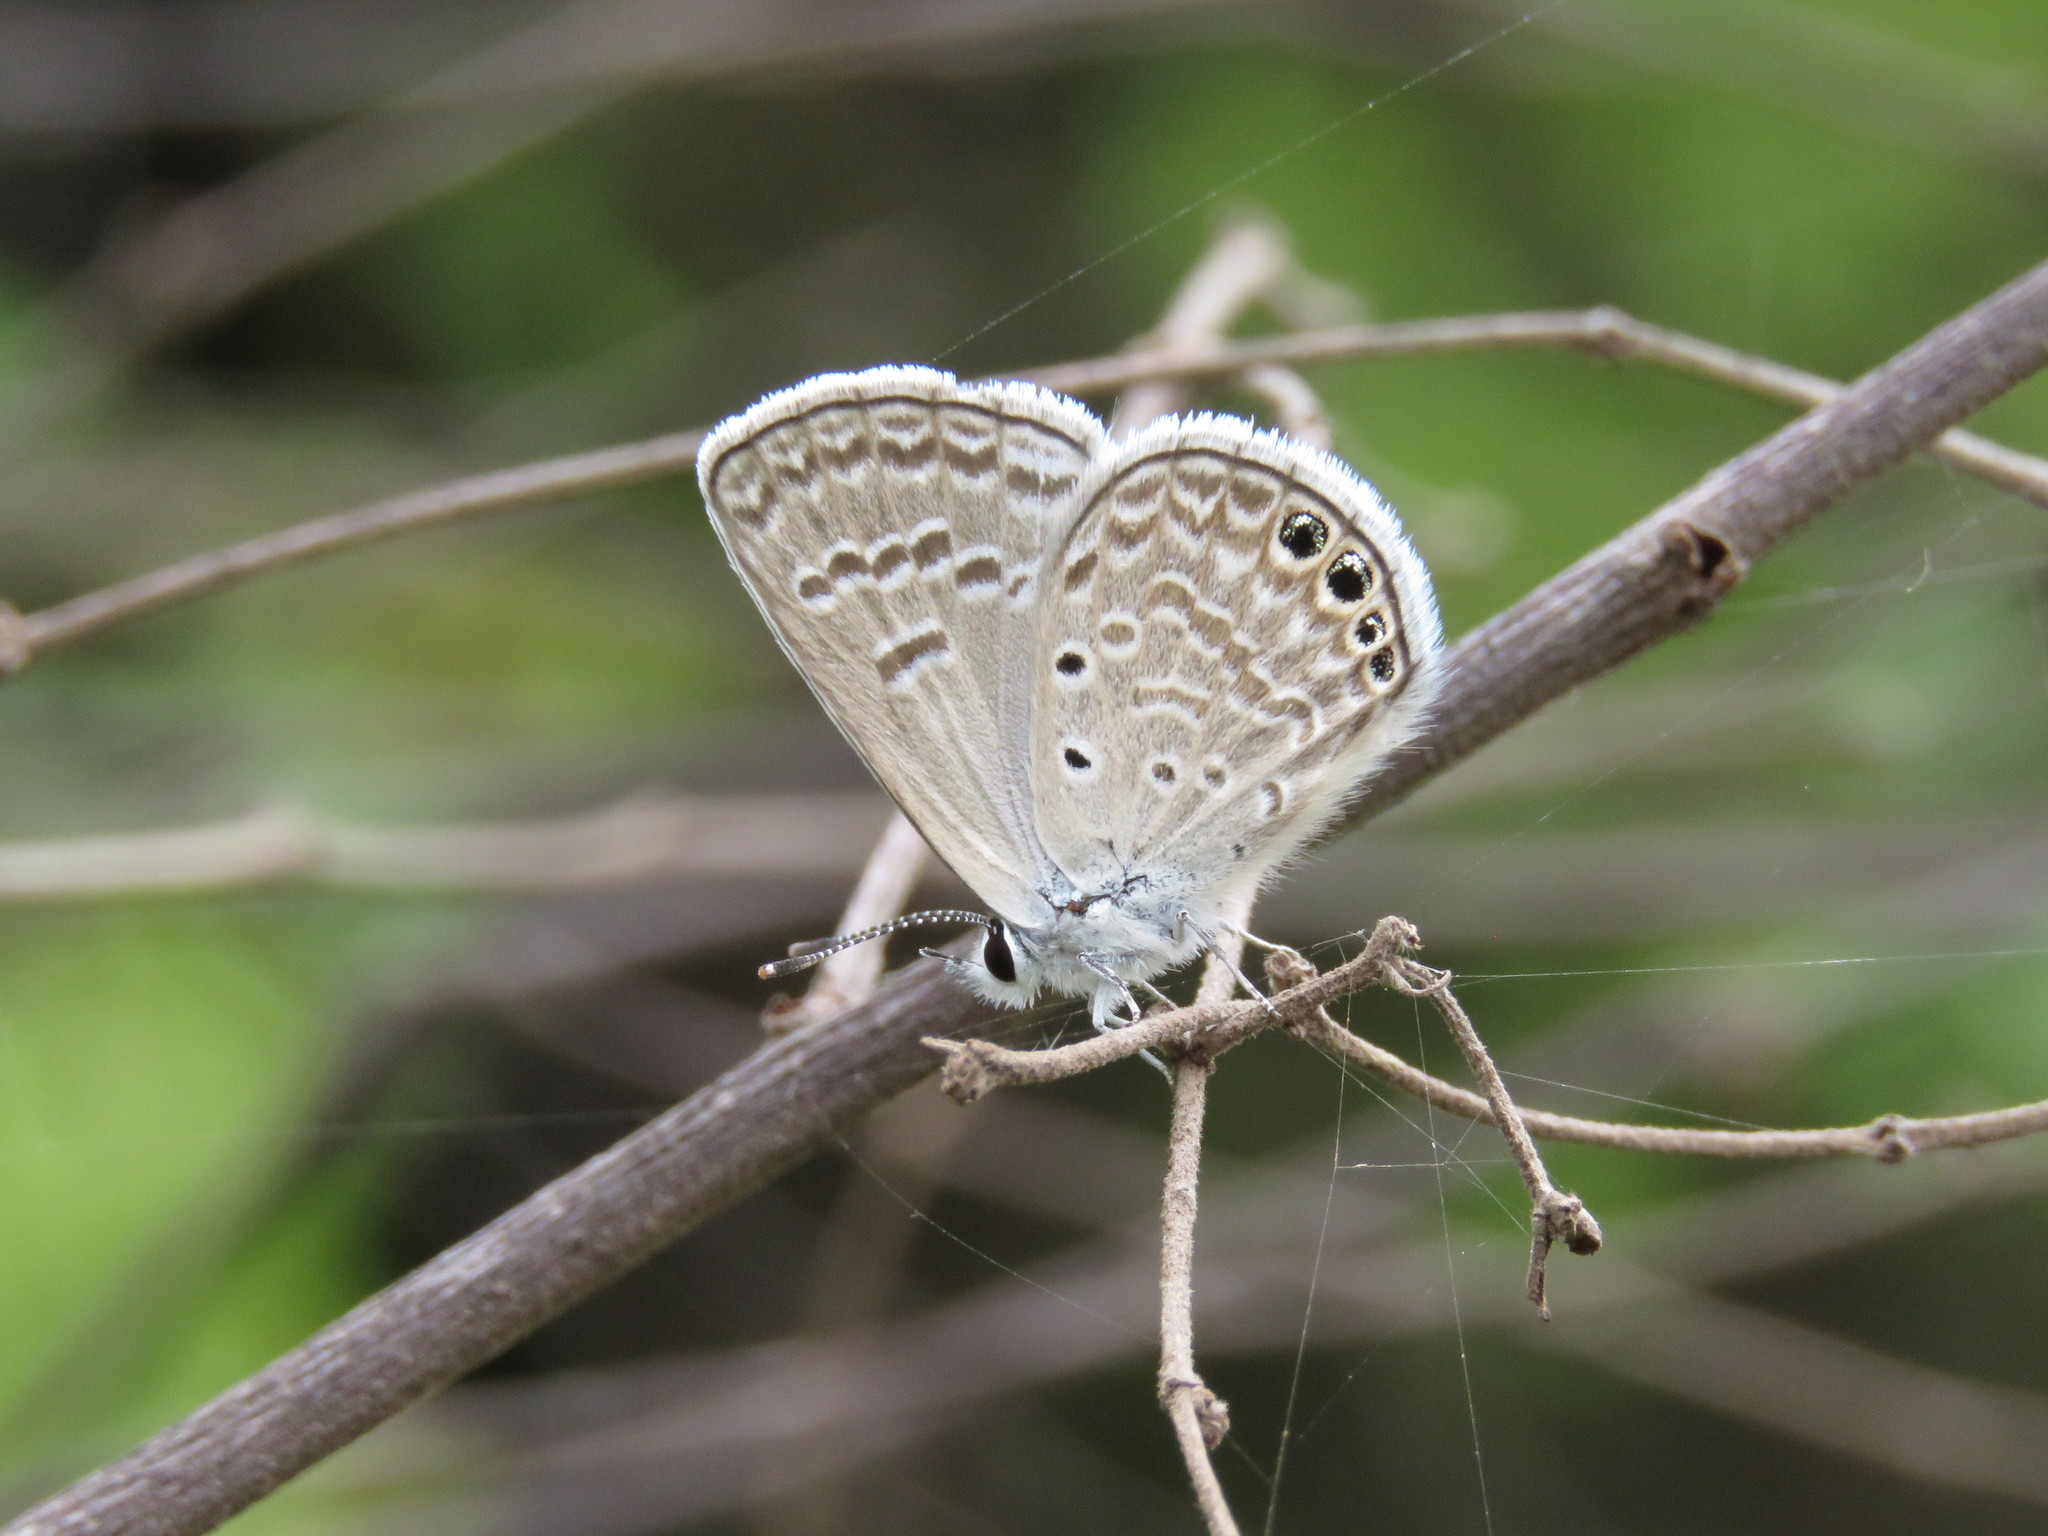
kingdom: Animalia
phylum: Arthropoda
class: Insecta
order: Lepidoptera
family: Lycaenidae
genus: Hemiargus
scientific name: Hemiargus ramon
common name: Ramon blue
